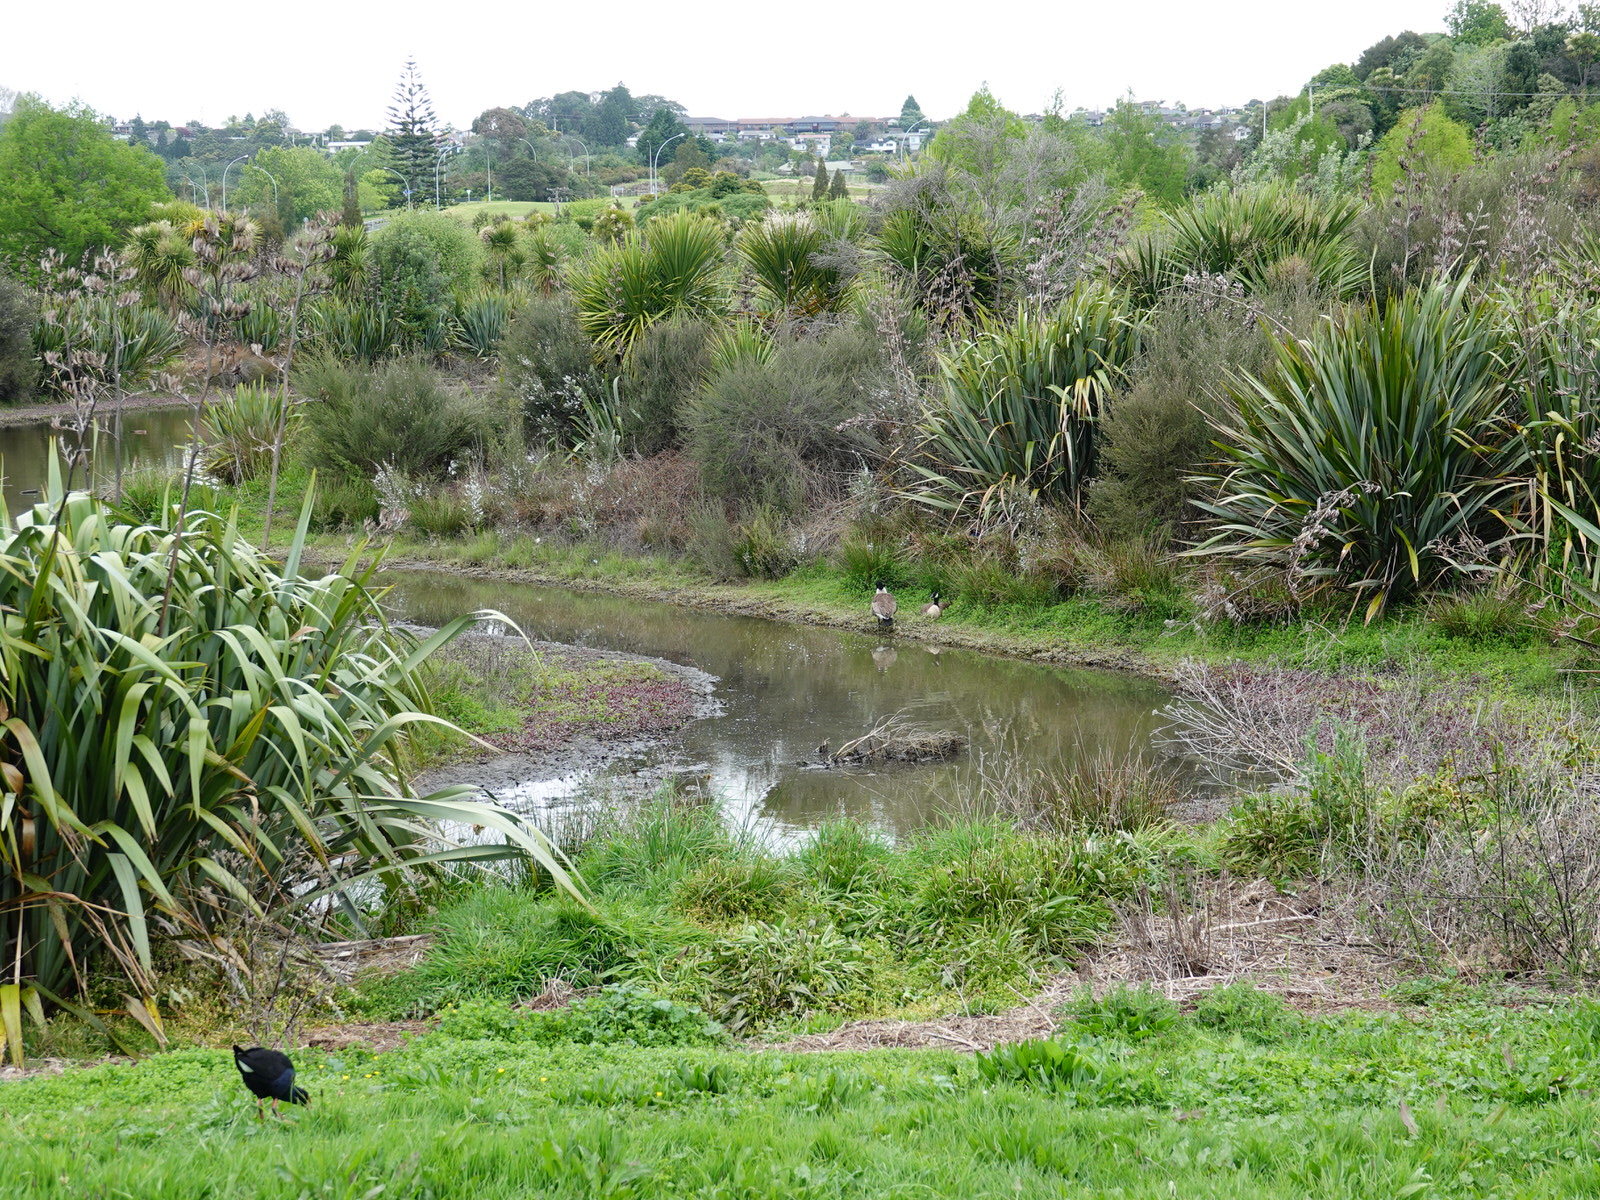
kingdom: Animalia
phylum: Chordata
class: Aves
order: Anseriformes
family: Anatidae
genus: Branta
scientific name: Branta canadensis
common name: Canada goose
